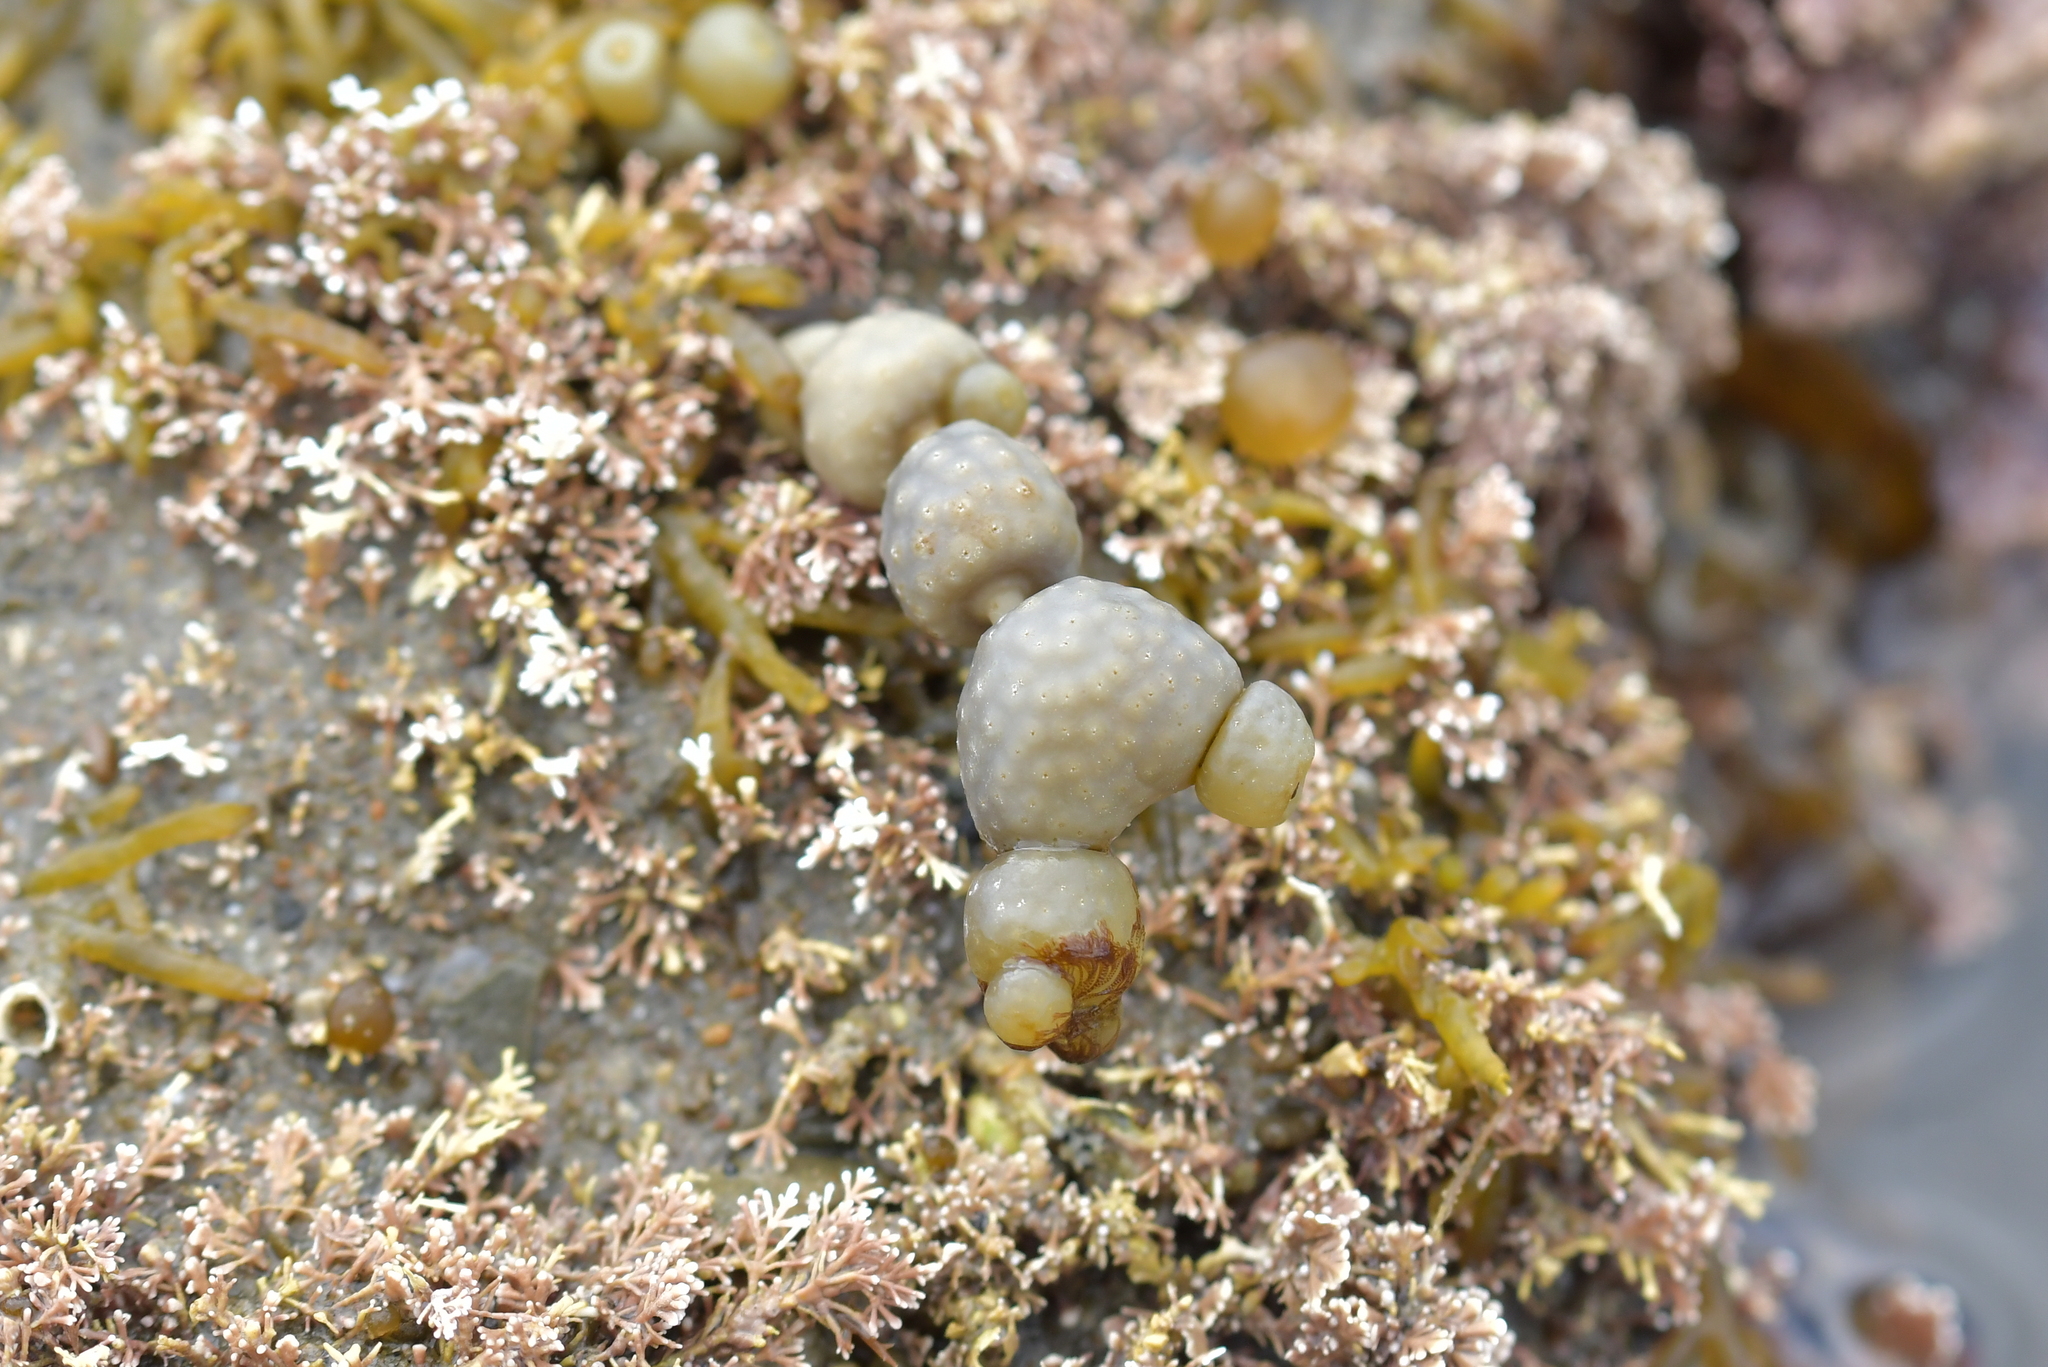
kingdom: Chromista
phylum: Ochrophyta
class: Phaeophyceae
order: Fucales
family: Hormosiraceae
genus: Hormosira
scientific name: Hormosira banksii
